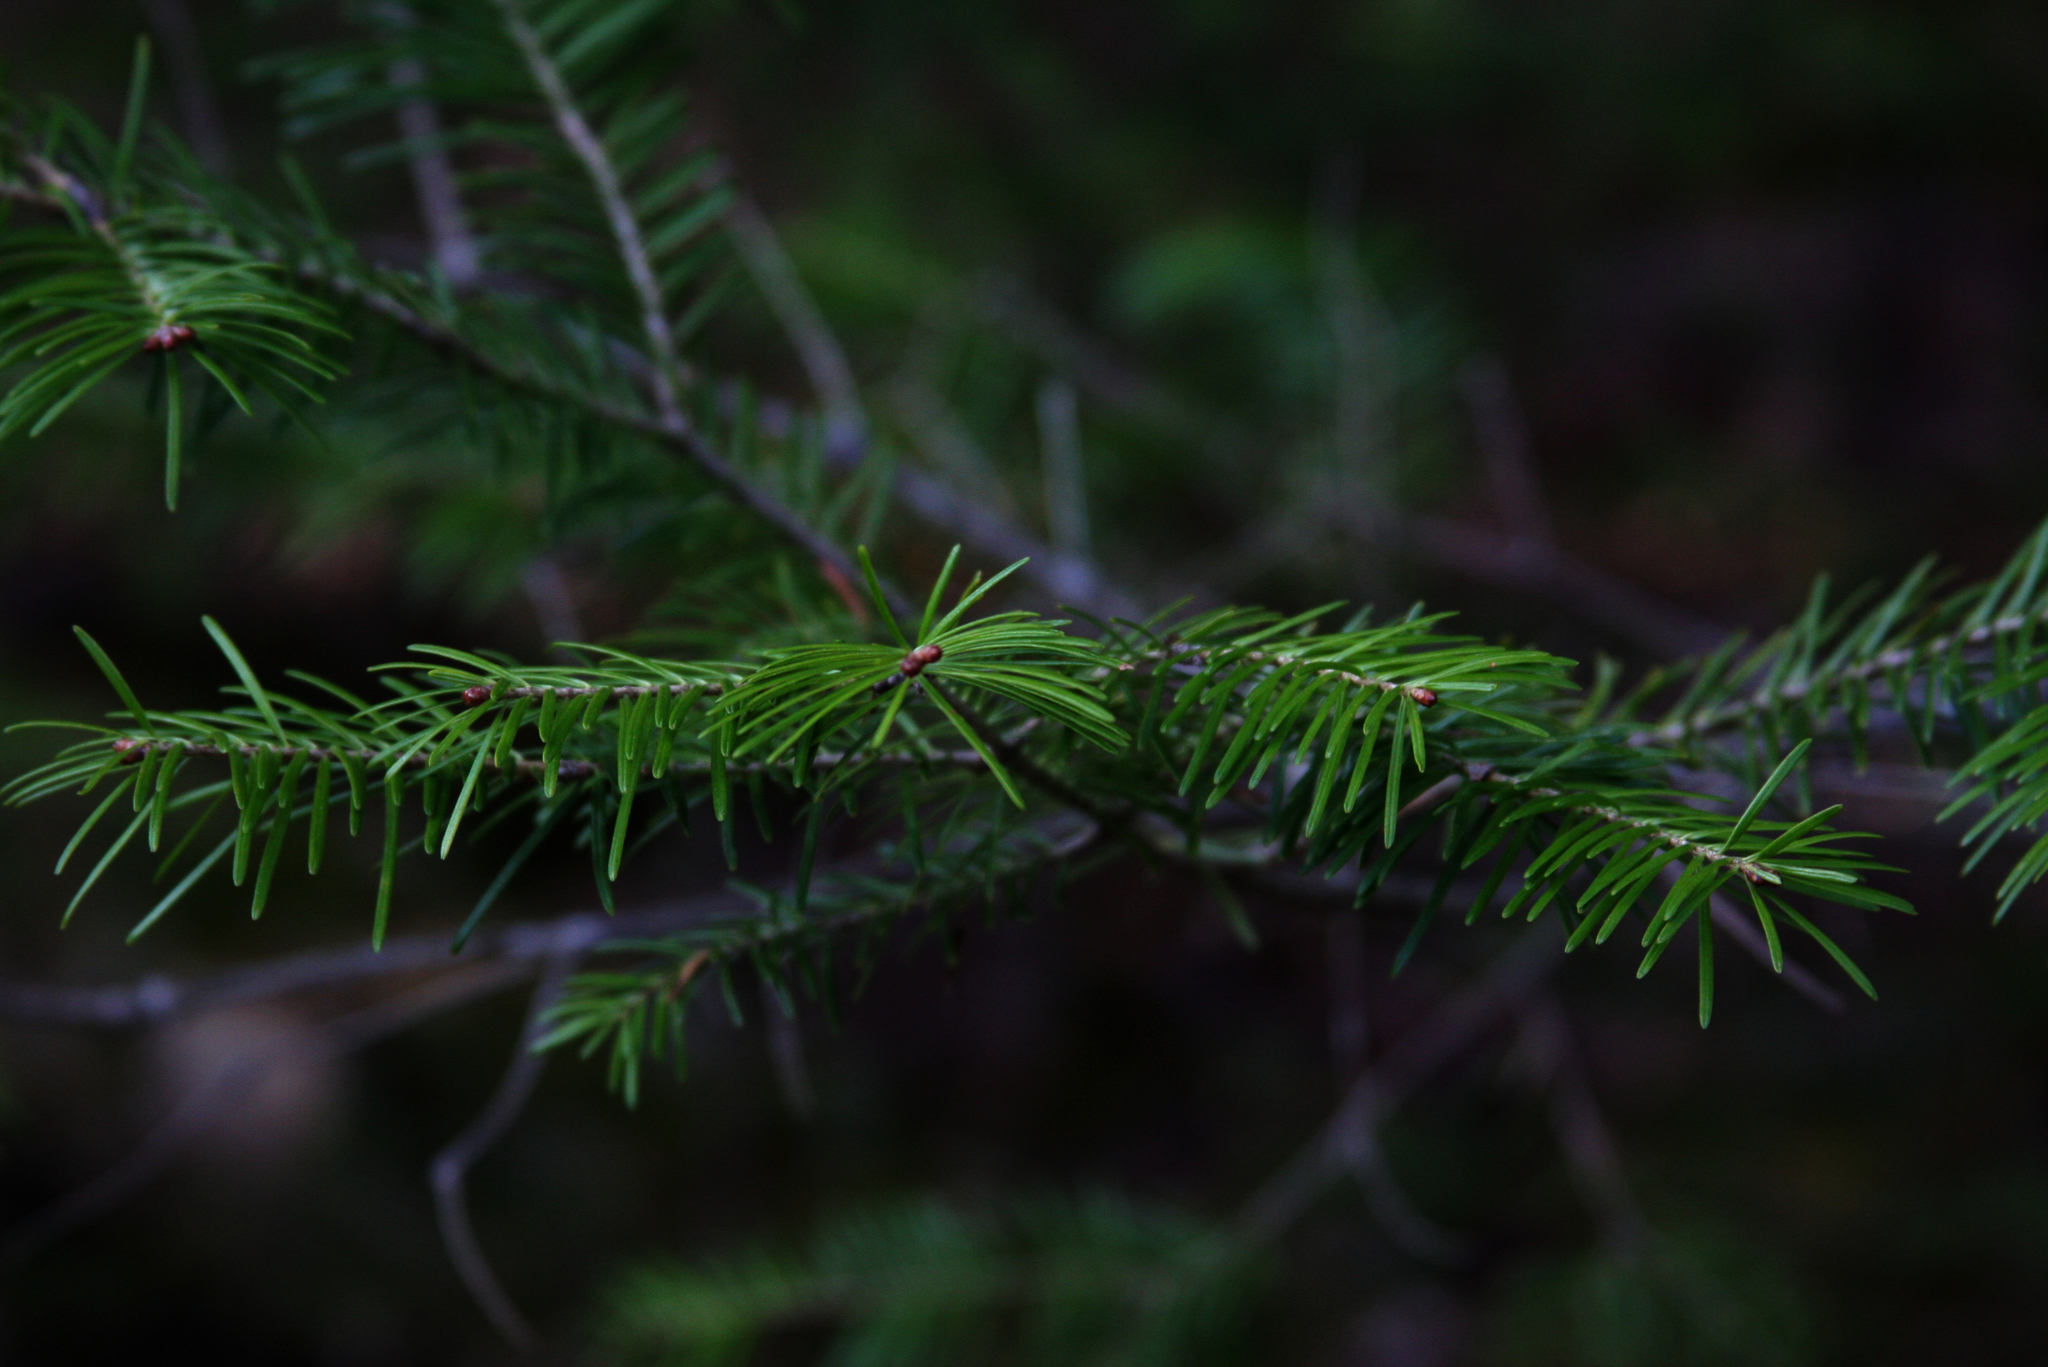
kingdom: Plantae
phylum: Tracheophyta
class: Pinopsida
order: Pinales
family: Pinaceae
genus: Abies
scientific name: Abies balsamea
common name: Balsam fir
